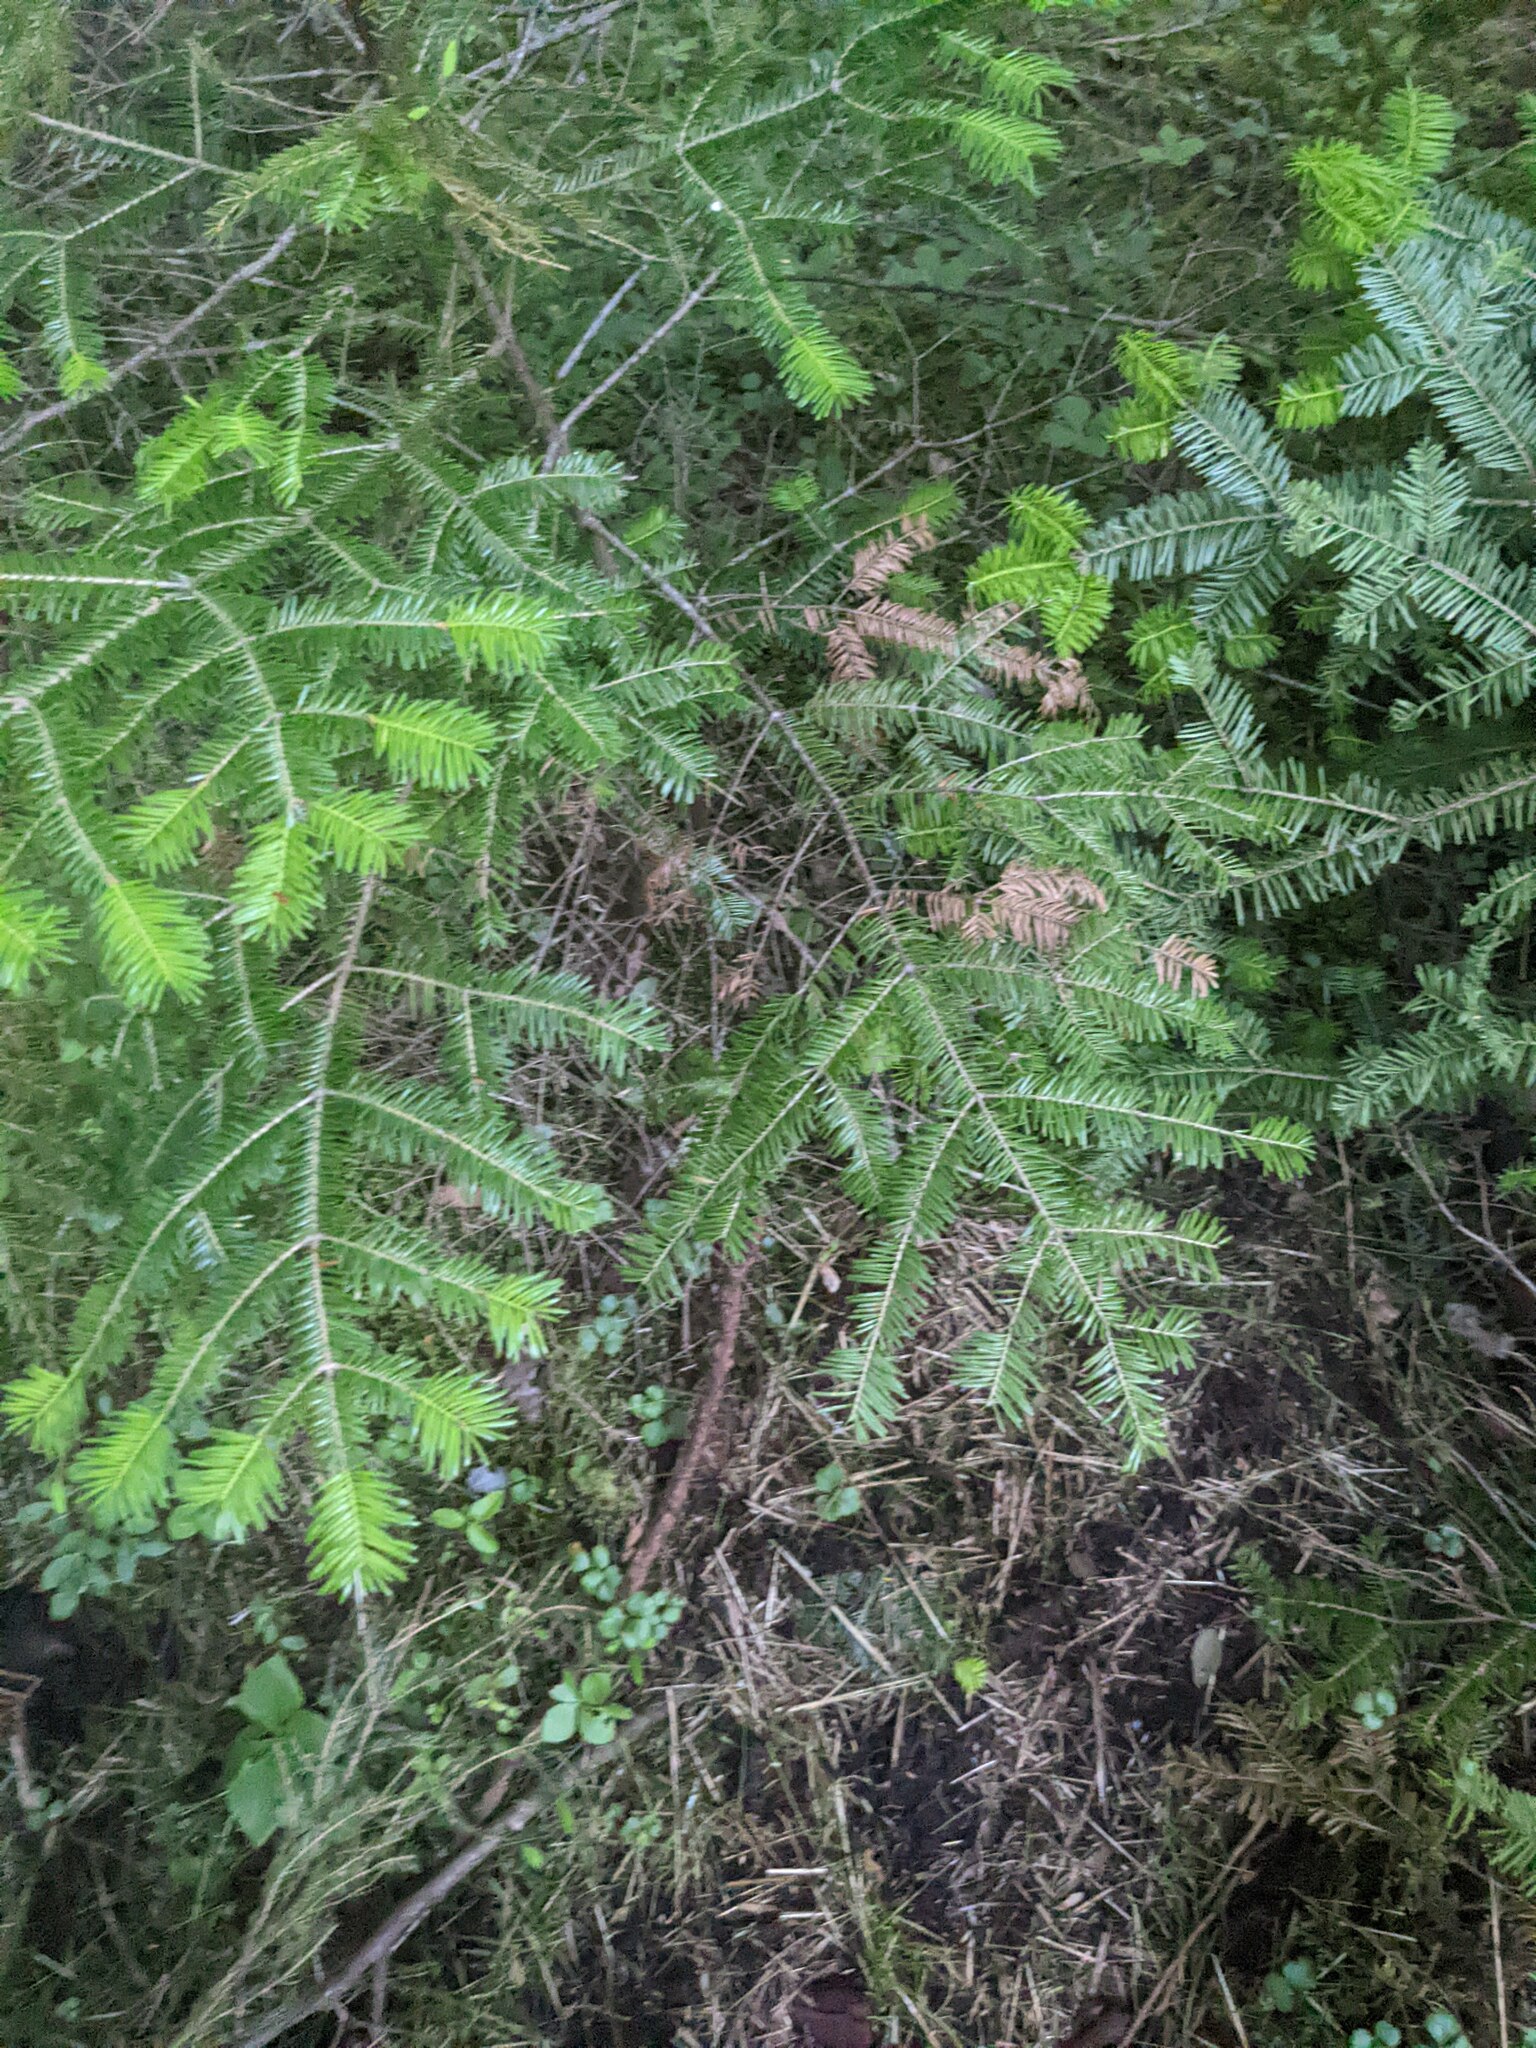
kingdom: Plantae
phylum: Tracheophyta
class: Pinopsida
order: Pinales
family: Pinaceae
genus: Abies
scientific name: Abies balsamea
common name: Balsam fir
